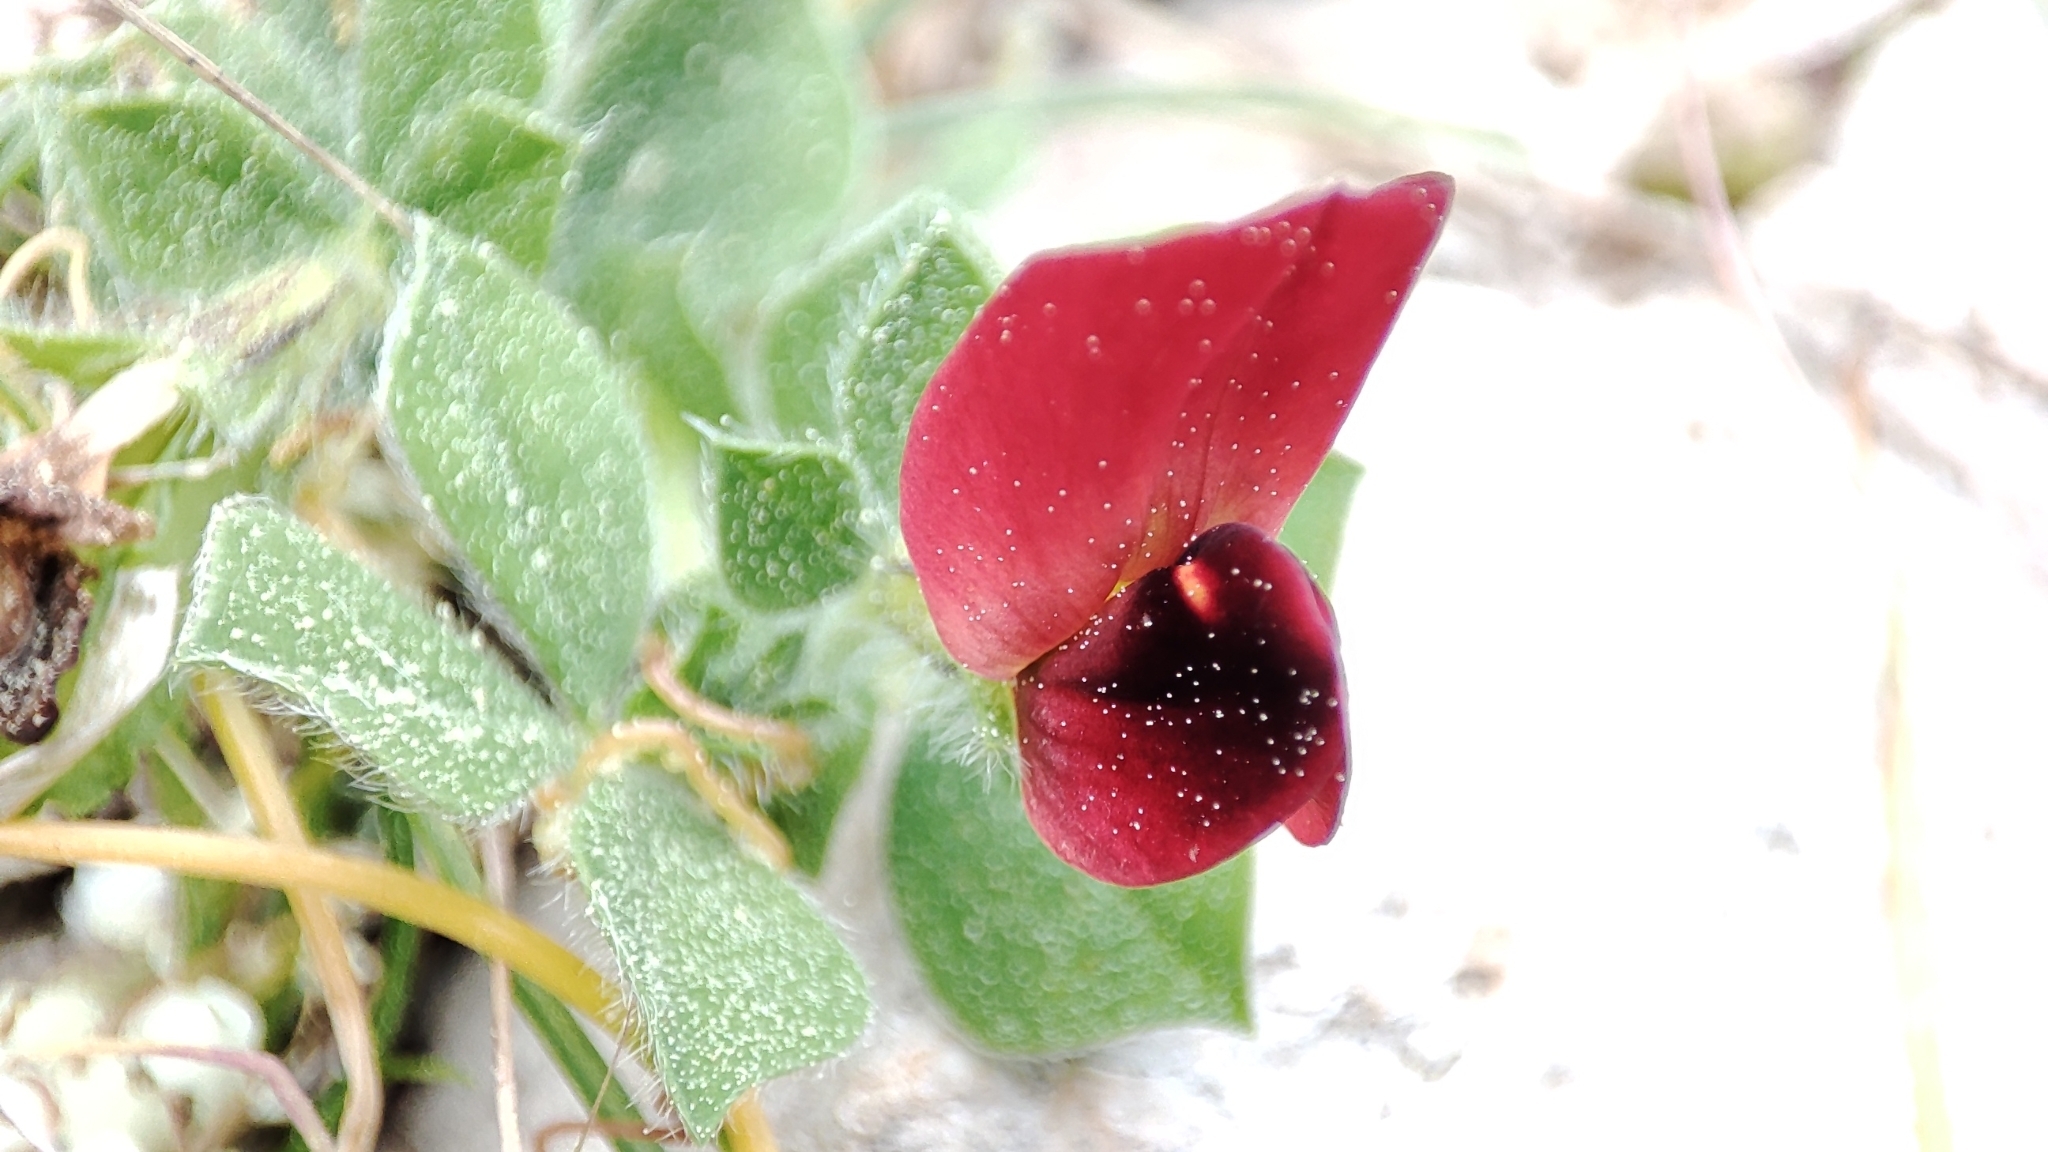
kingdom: Plantae
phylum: Tracheophyta
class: Magnoliopsida
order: Fabales
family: Fabaceae
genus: Lotus
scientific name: Lotus tetragonolobus
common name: Asparagus-pea
